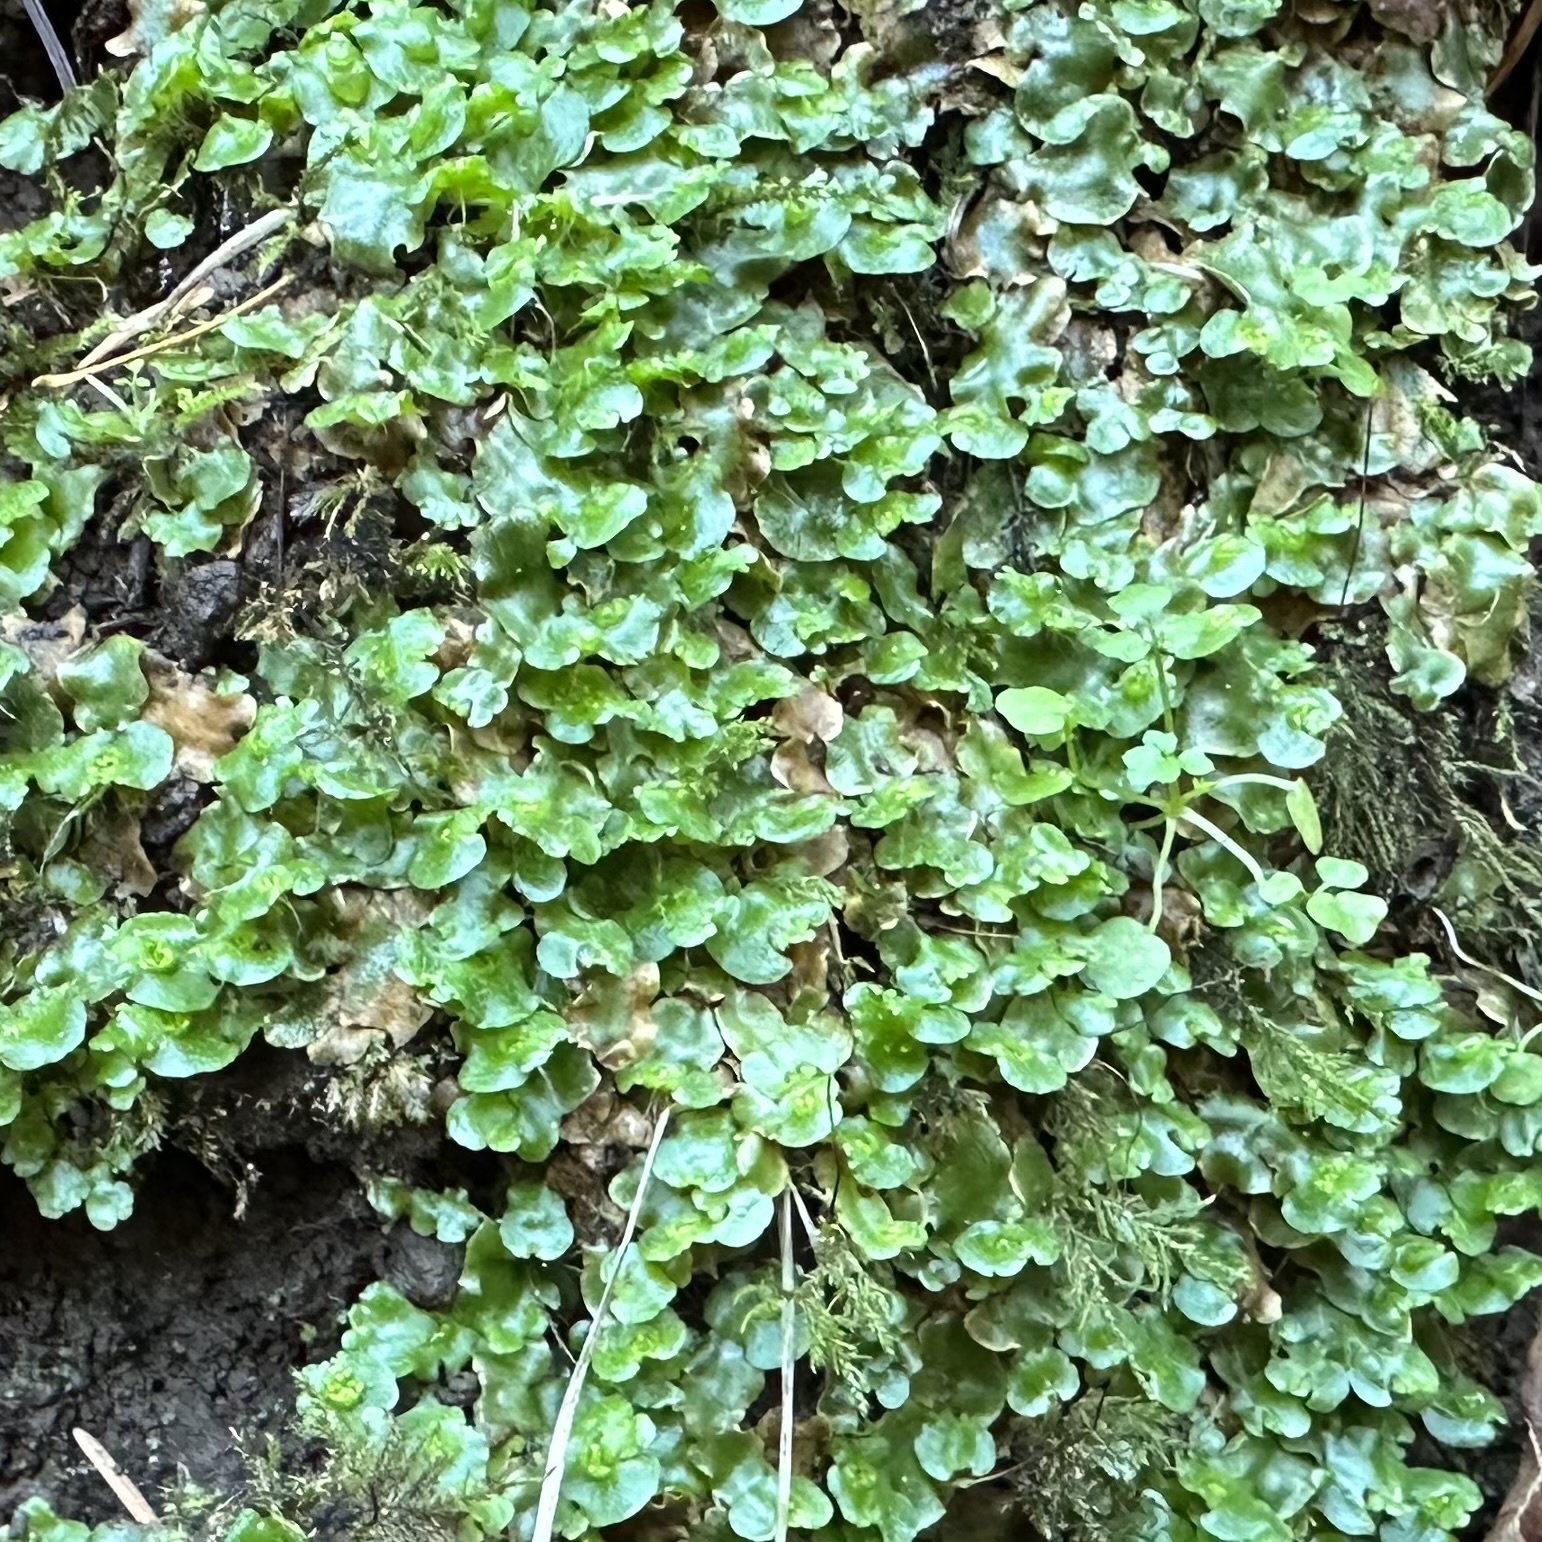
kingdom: Plantae
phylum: Marchantiophyta
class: Marchantiopsida
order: Lunulariales
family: Lunulariaceae
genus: Lunularia
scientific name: Lunularia cruciata
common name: Crescent-cup liverwort
